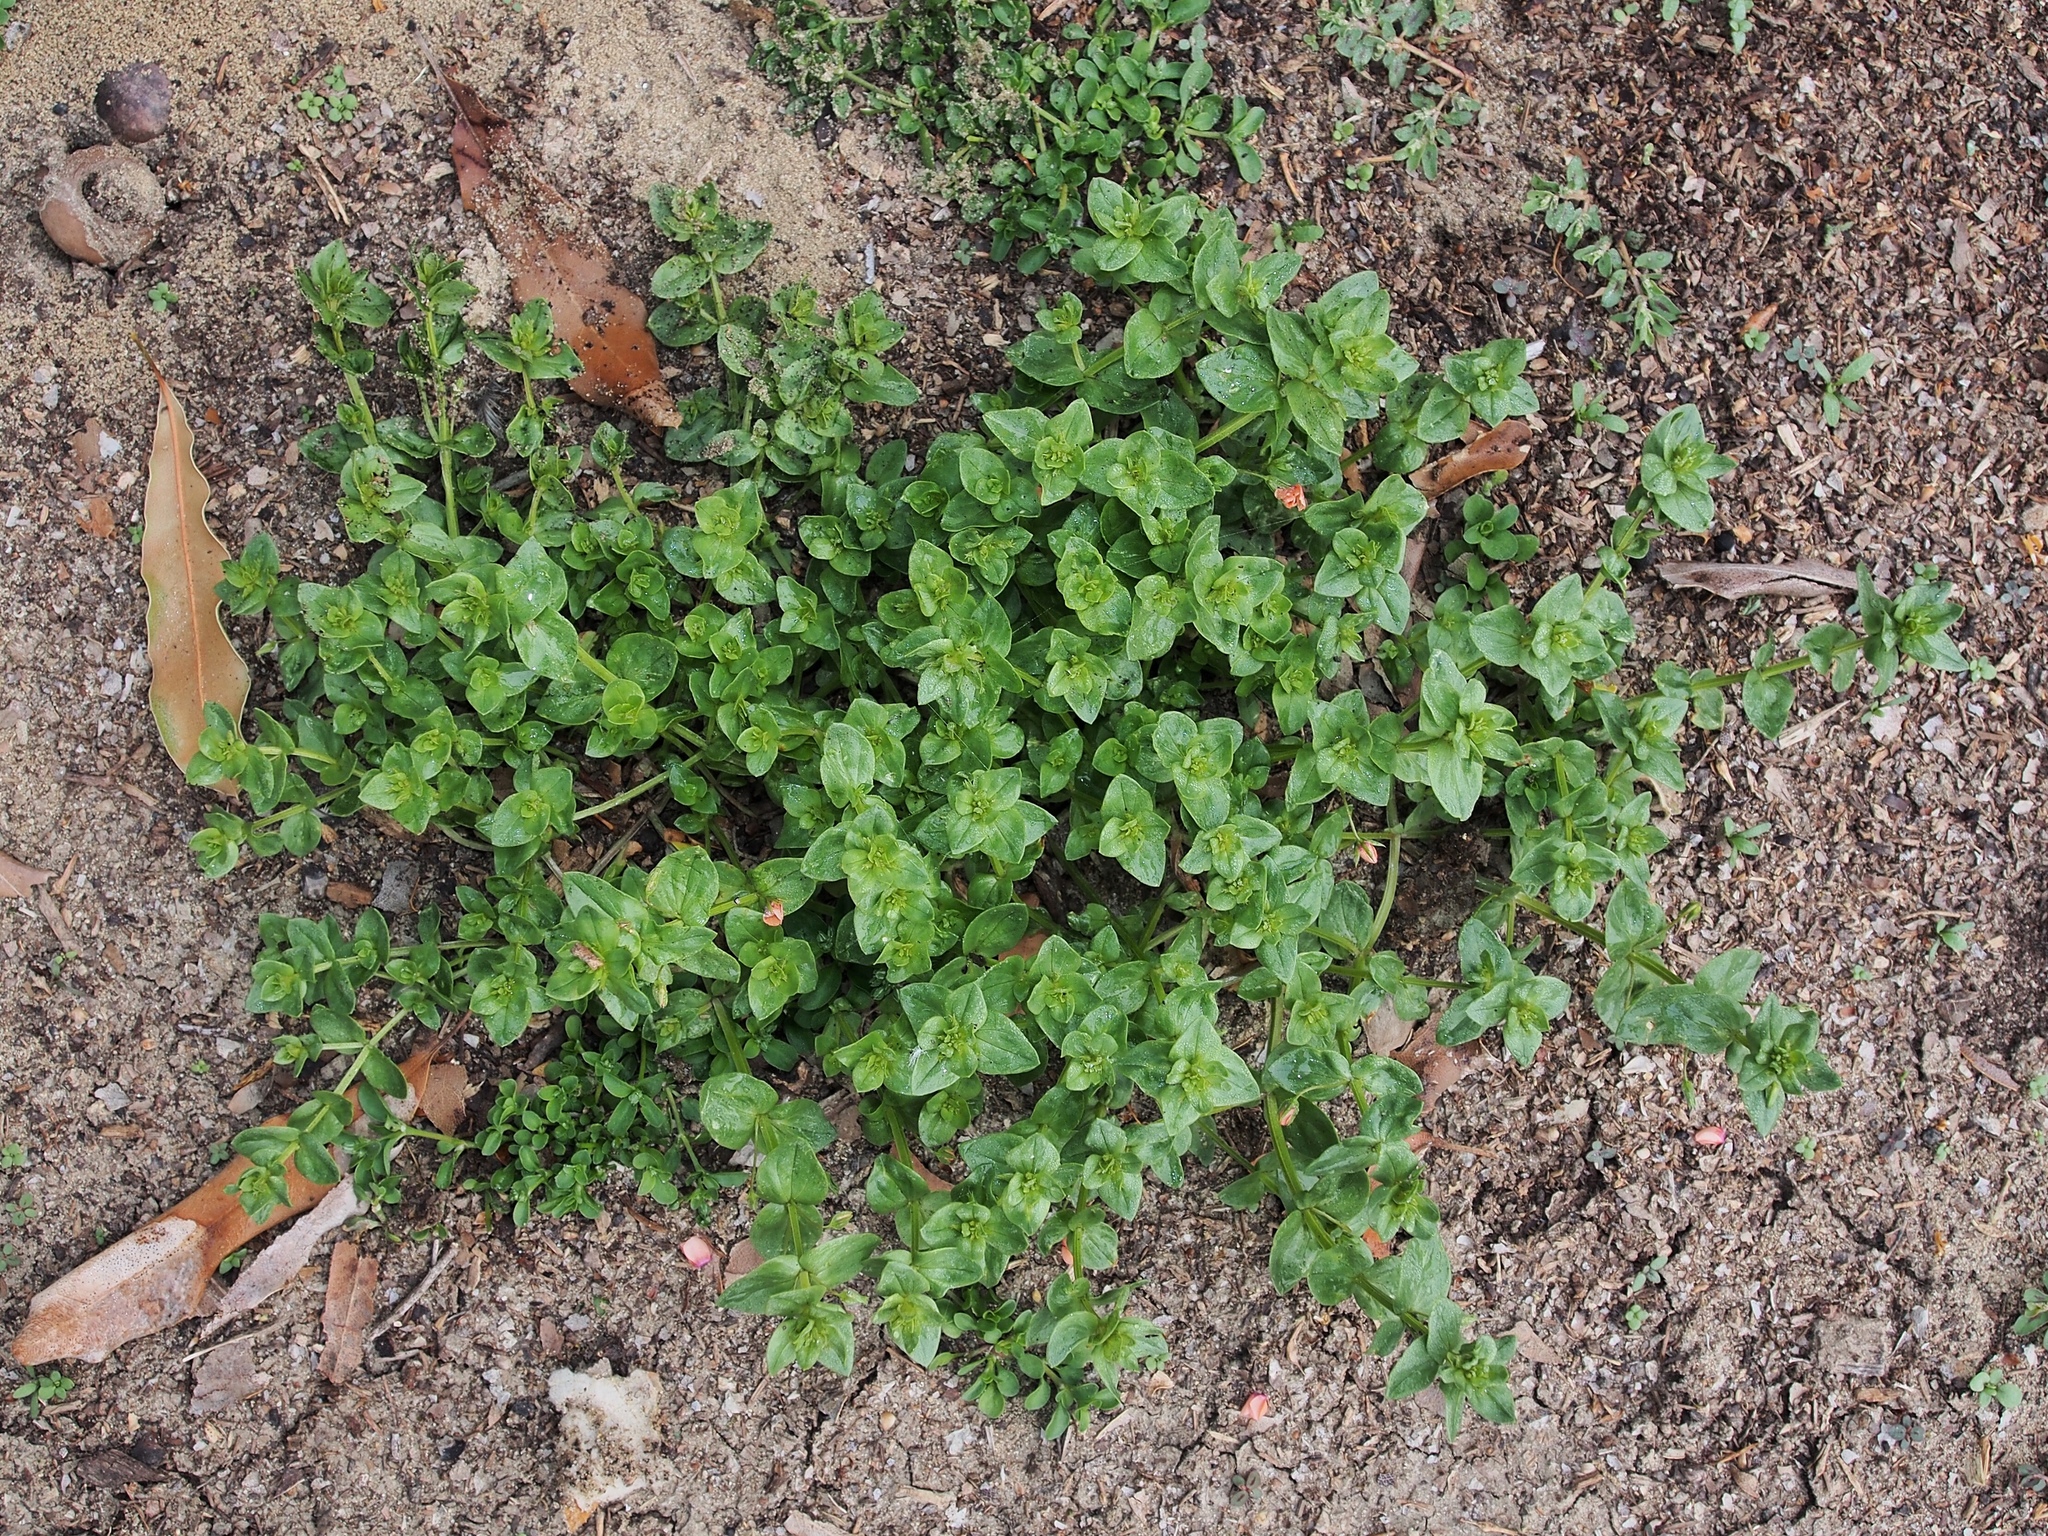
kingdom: Plantae
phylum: Tracheophyta
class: Magnoliopsida
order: Ericales
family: Primulaceae
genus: Lysimachia
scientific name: Lysimachia arvensis
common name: Scarlet pimpernel
